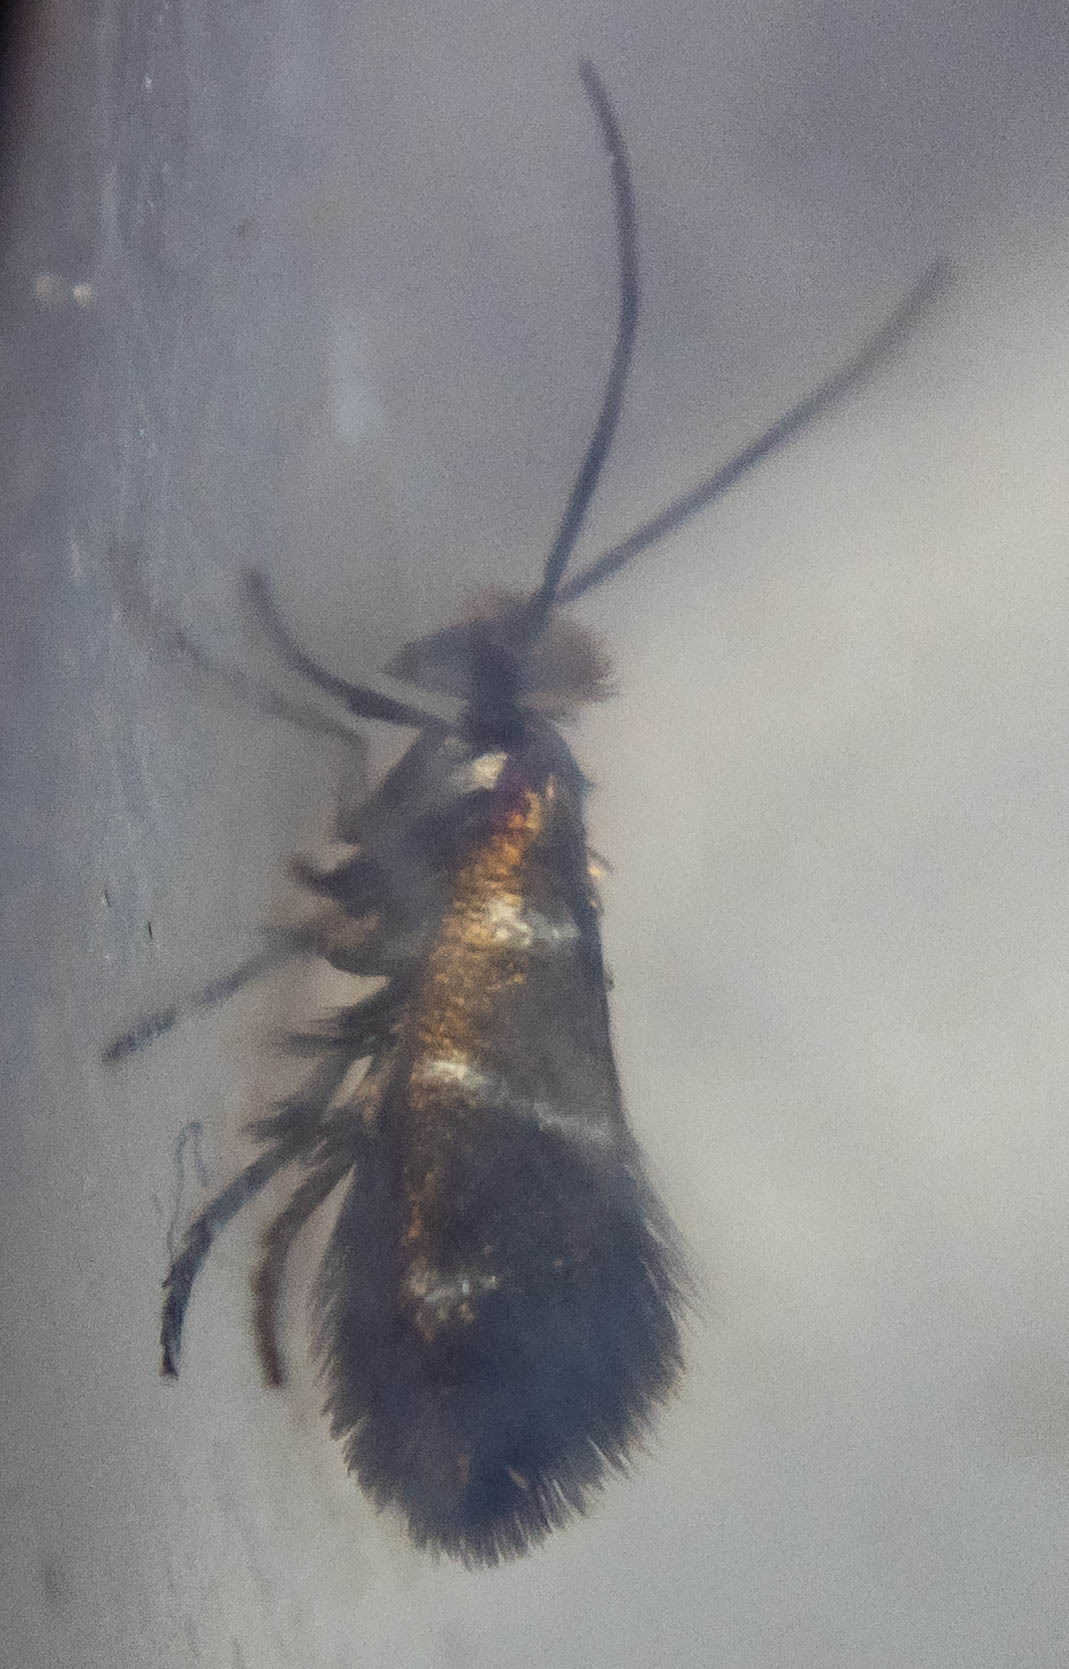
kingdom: Animalia
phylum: Arthropoda
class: Insecta
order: Lepidoptera
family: Micropterigidae
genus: Micropterix
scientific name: Micropterix aruncella
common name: White-barred gold
